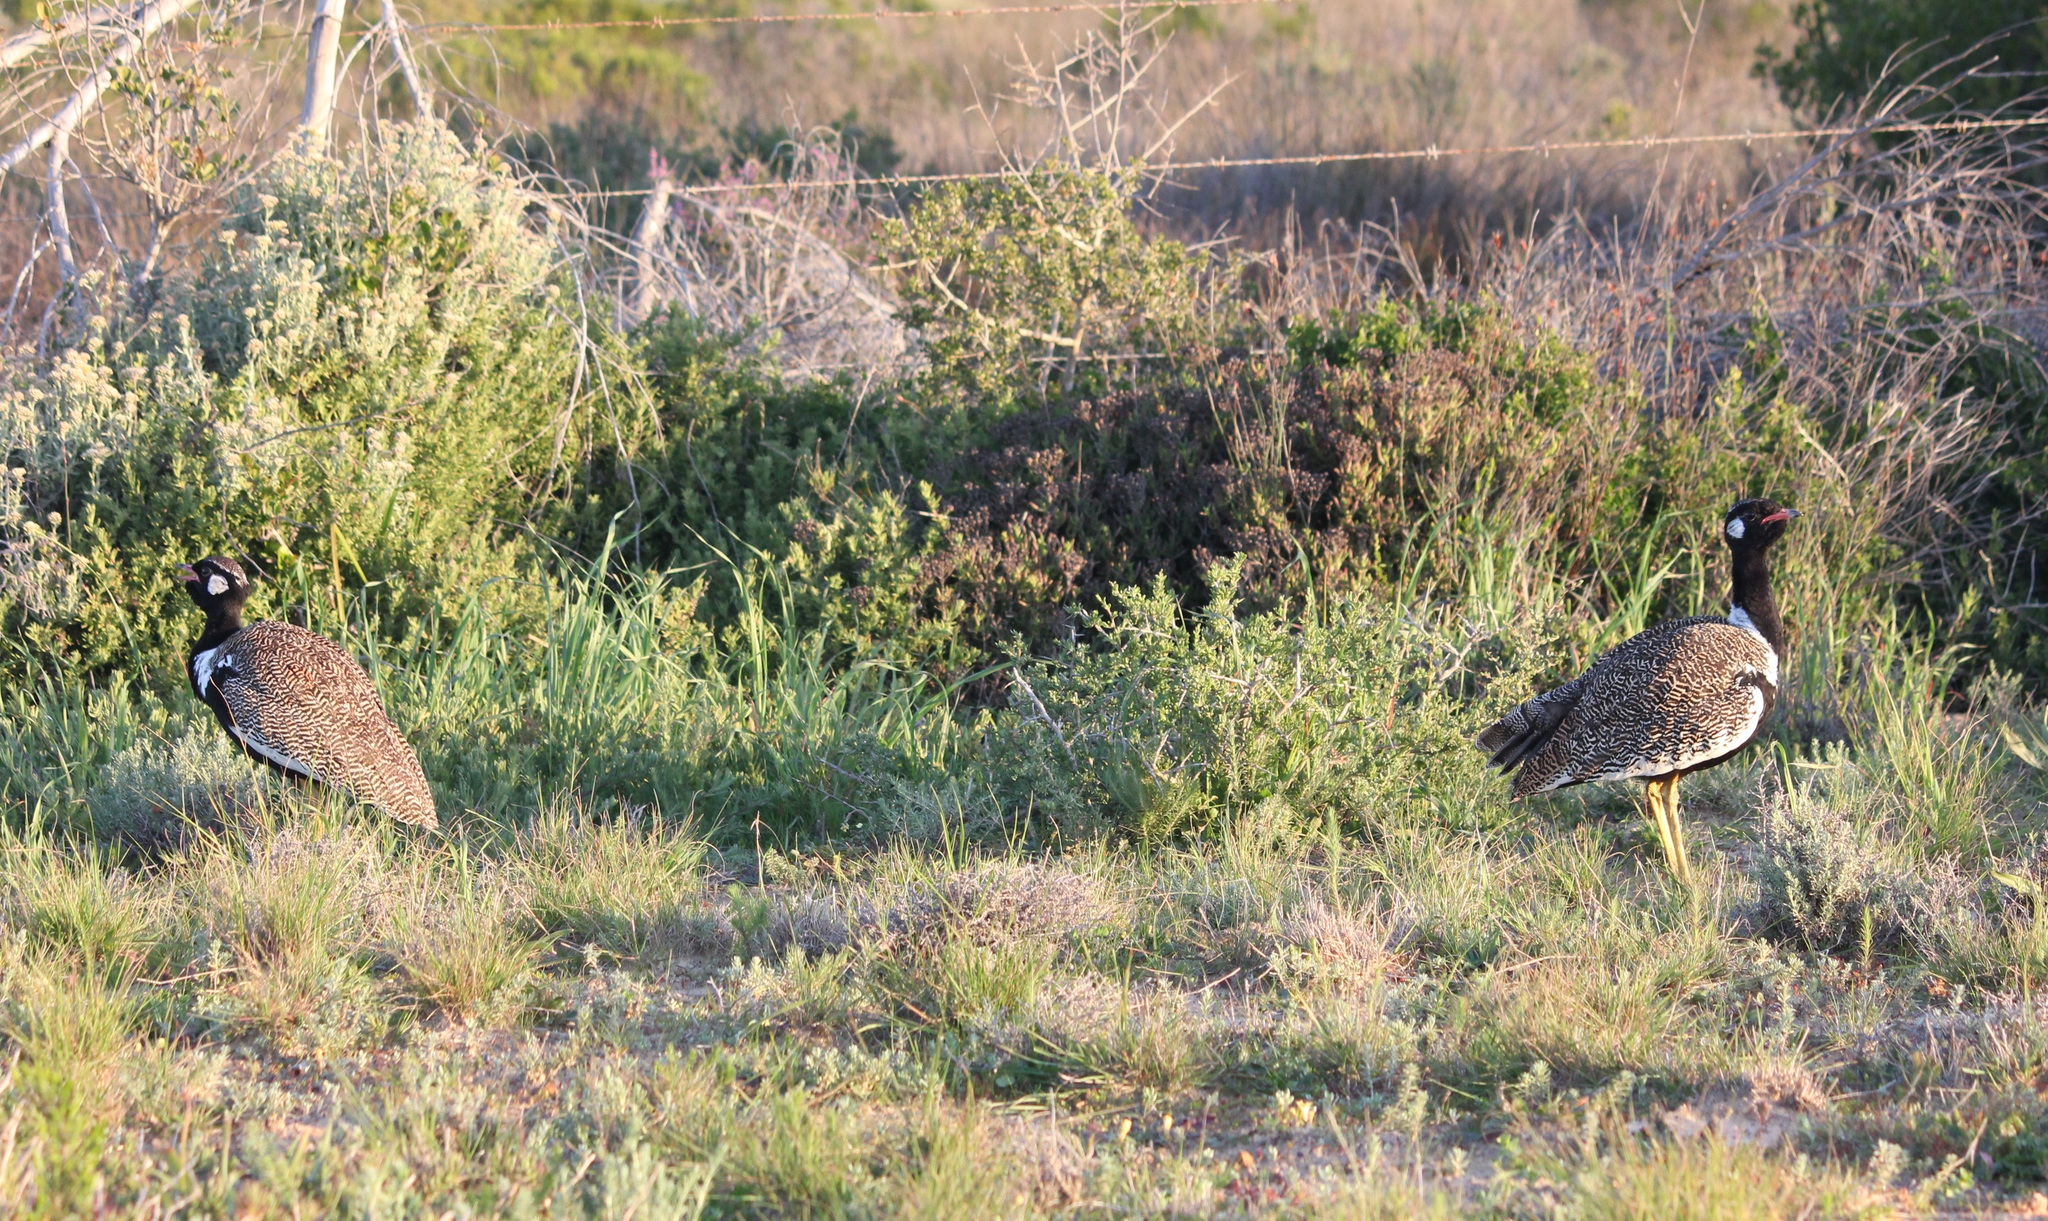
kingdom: Animalia
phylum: Chordata
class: Aves
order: Otidiformes
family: Otididae
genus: Afrotis
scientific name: Afrotis afra
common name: Southern black korhaan
